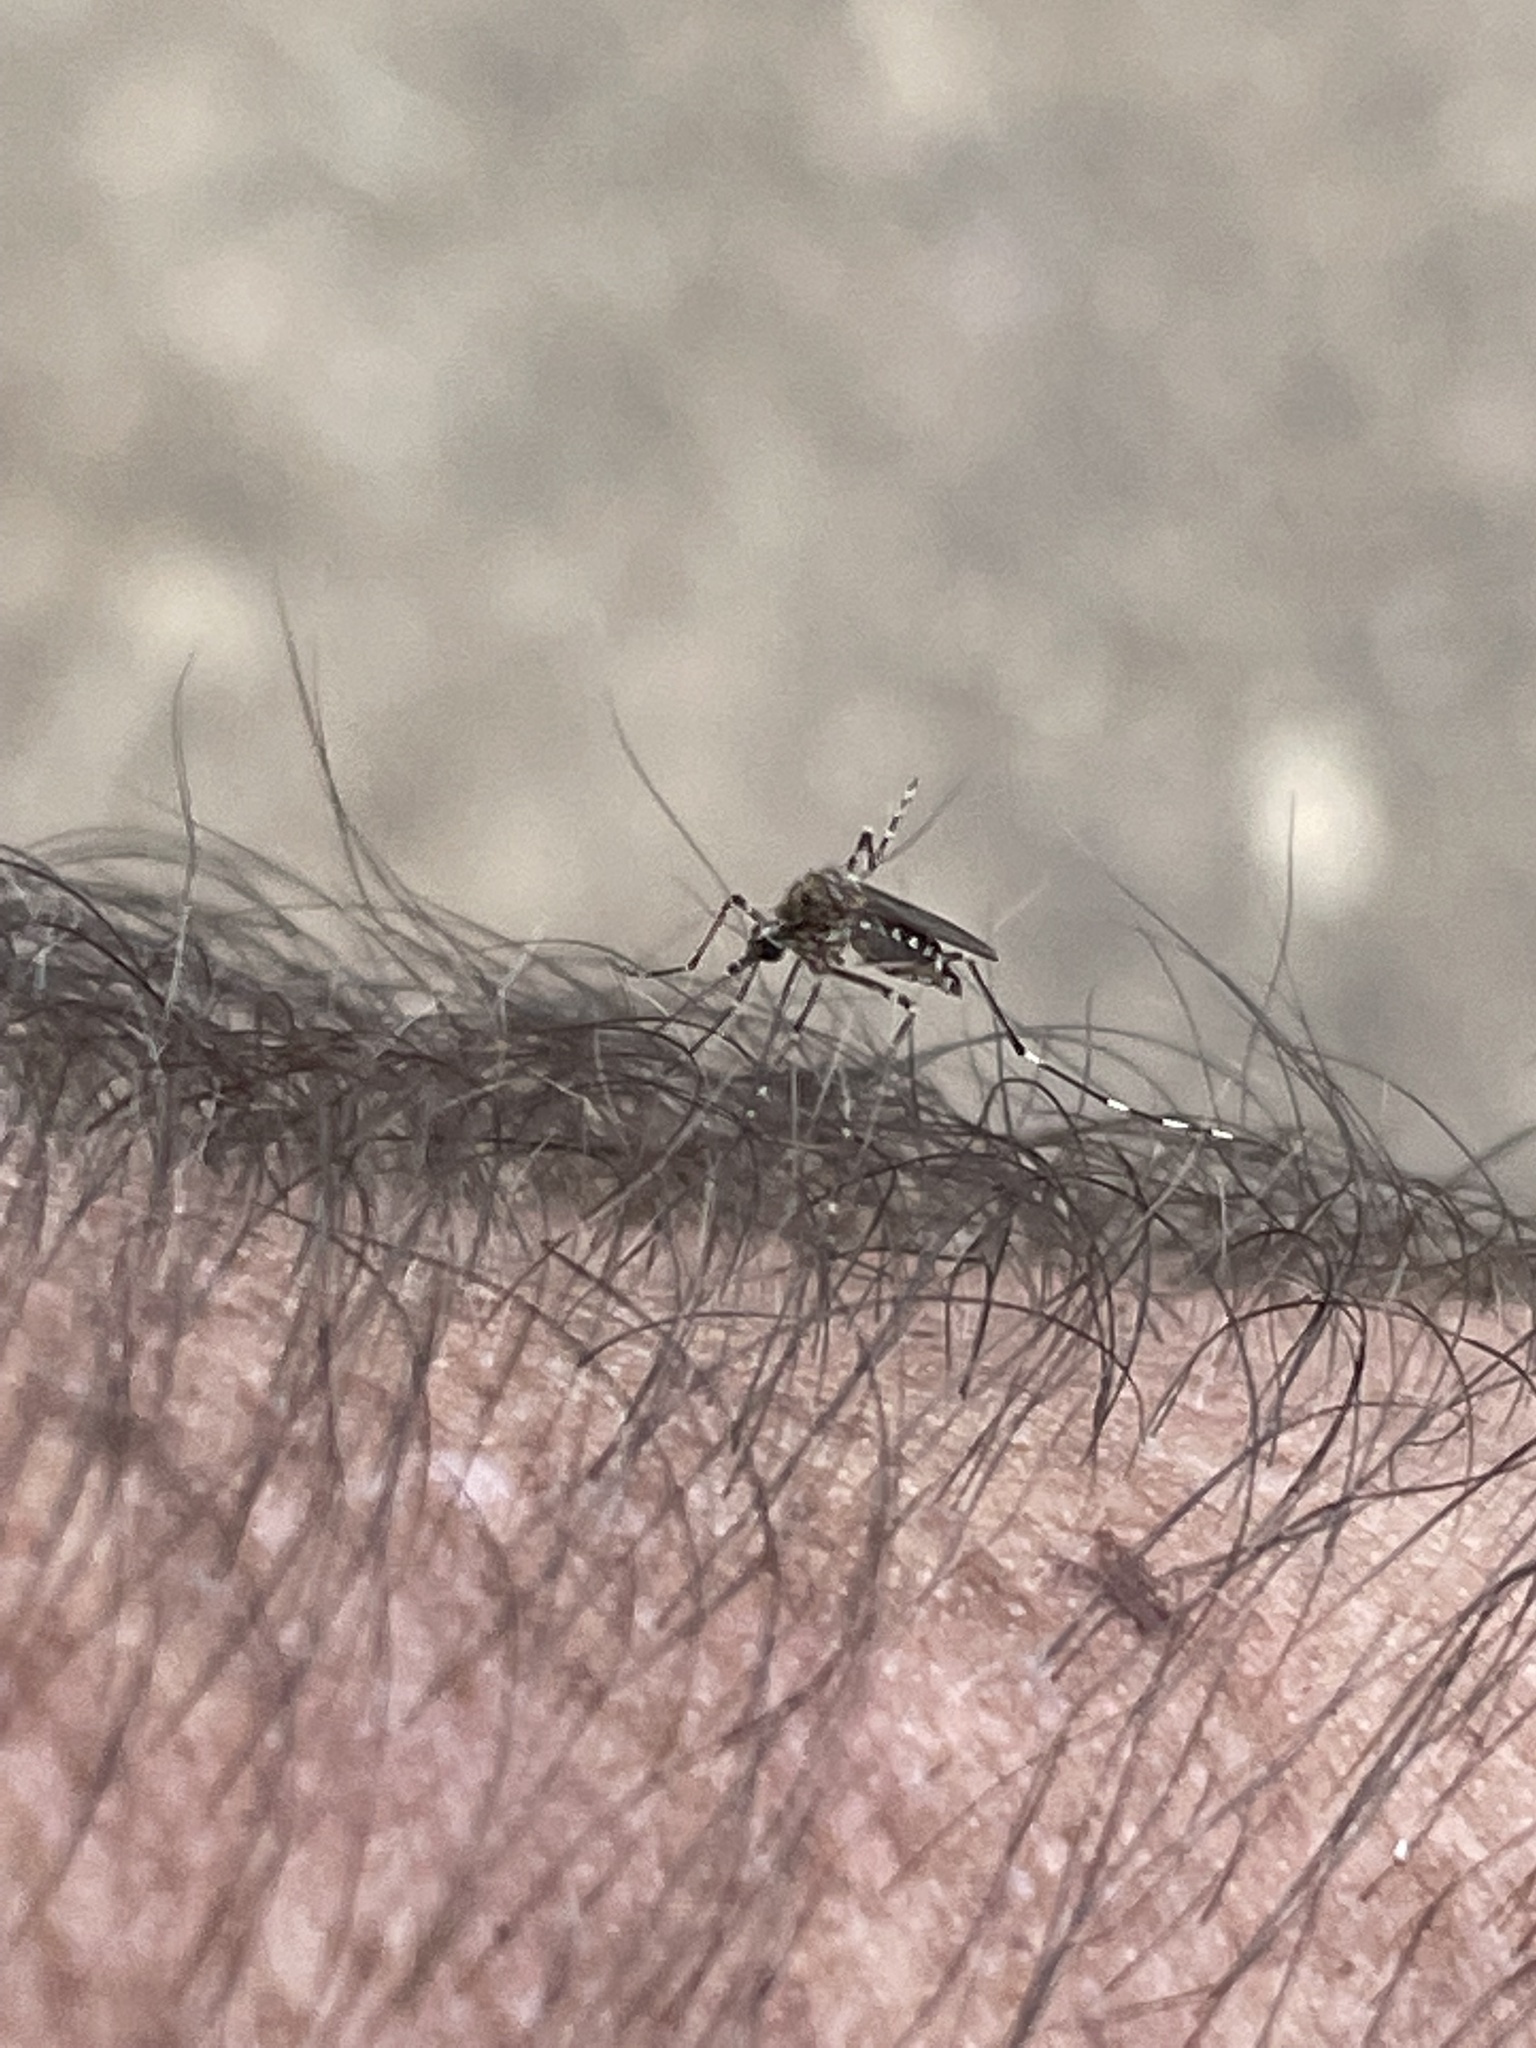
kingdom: Animalia
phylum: Arthropoda
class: Insecta
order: Diptera
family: Culicidae
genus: Aedes
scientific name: Aedes alboannulatus
